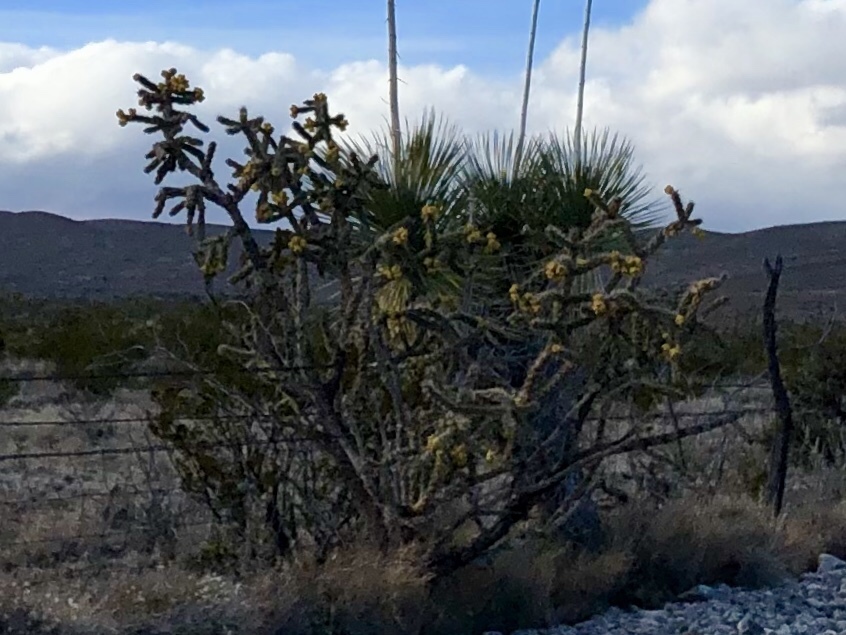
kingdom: Plantae
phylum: Tracheophyta
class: Magnoliopsida
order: Caryophyllales
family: Cactaceae
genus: Cylindropuntia
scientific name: Cylindropuntia imbricata
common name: Candelabrum cactus
